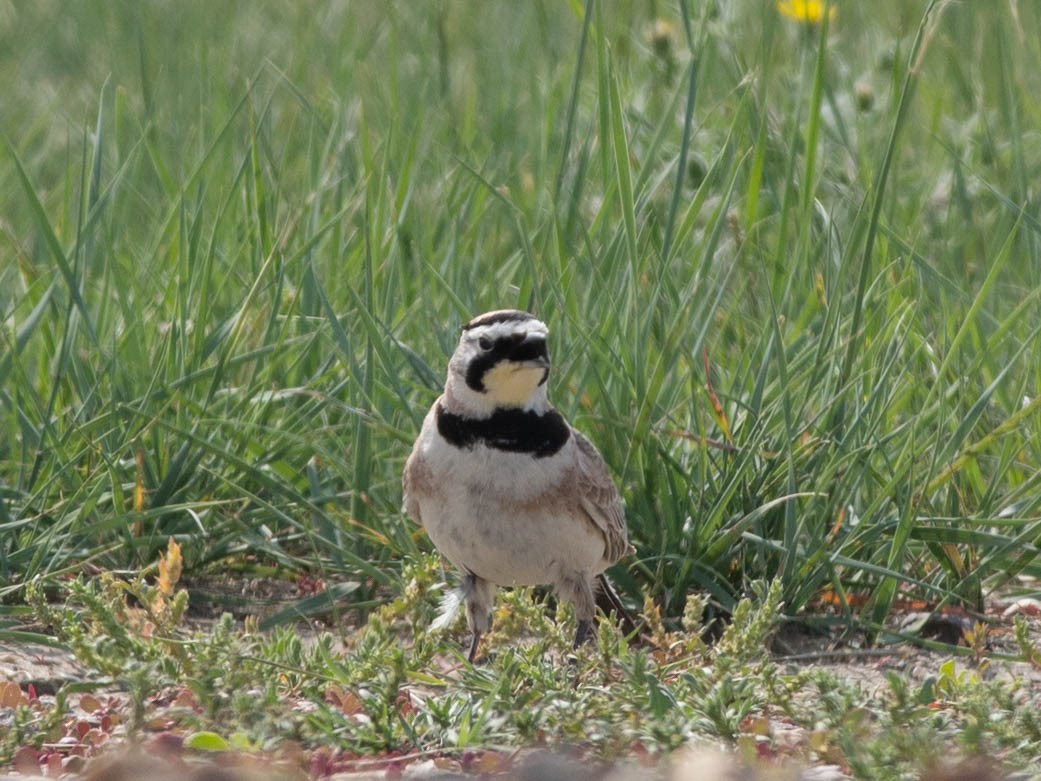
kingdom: Animalia
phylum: Chordata
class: Aves
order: Passeriformes
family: Alaudidae
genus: Eremophila
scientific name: Eremophila alpestris
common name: Horned lark
